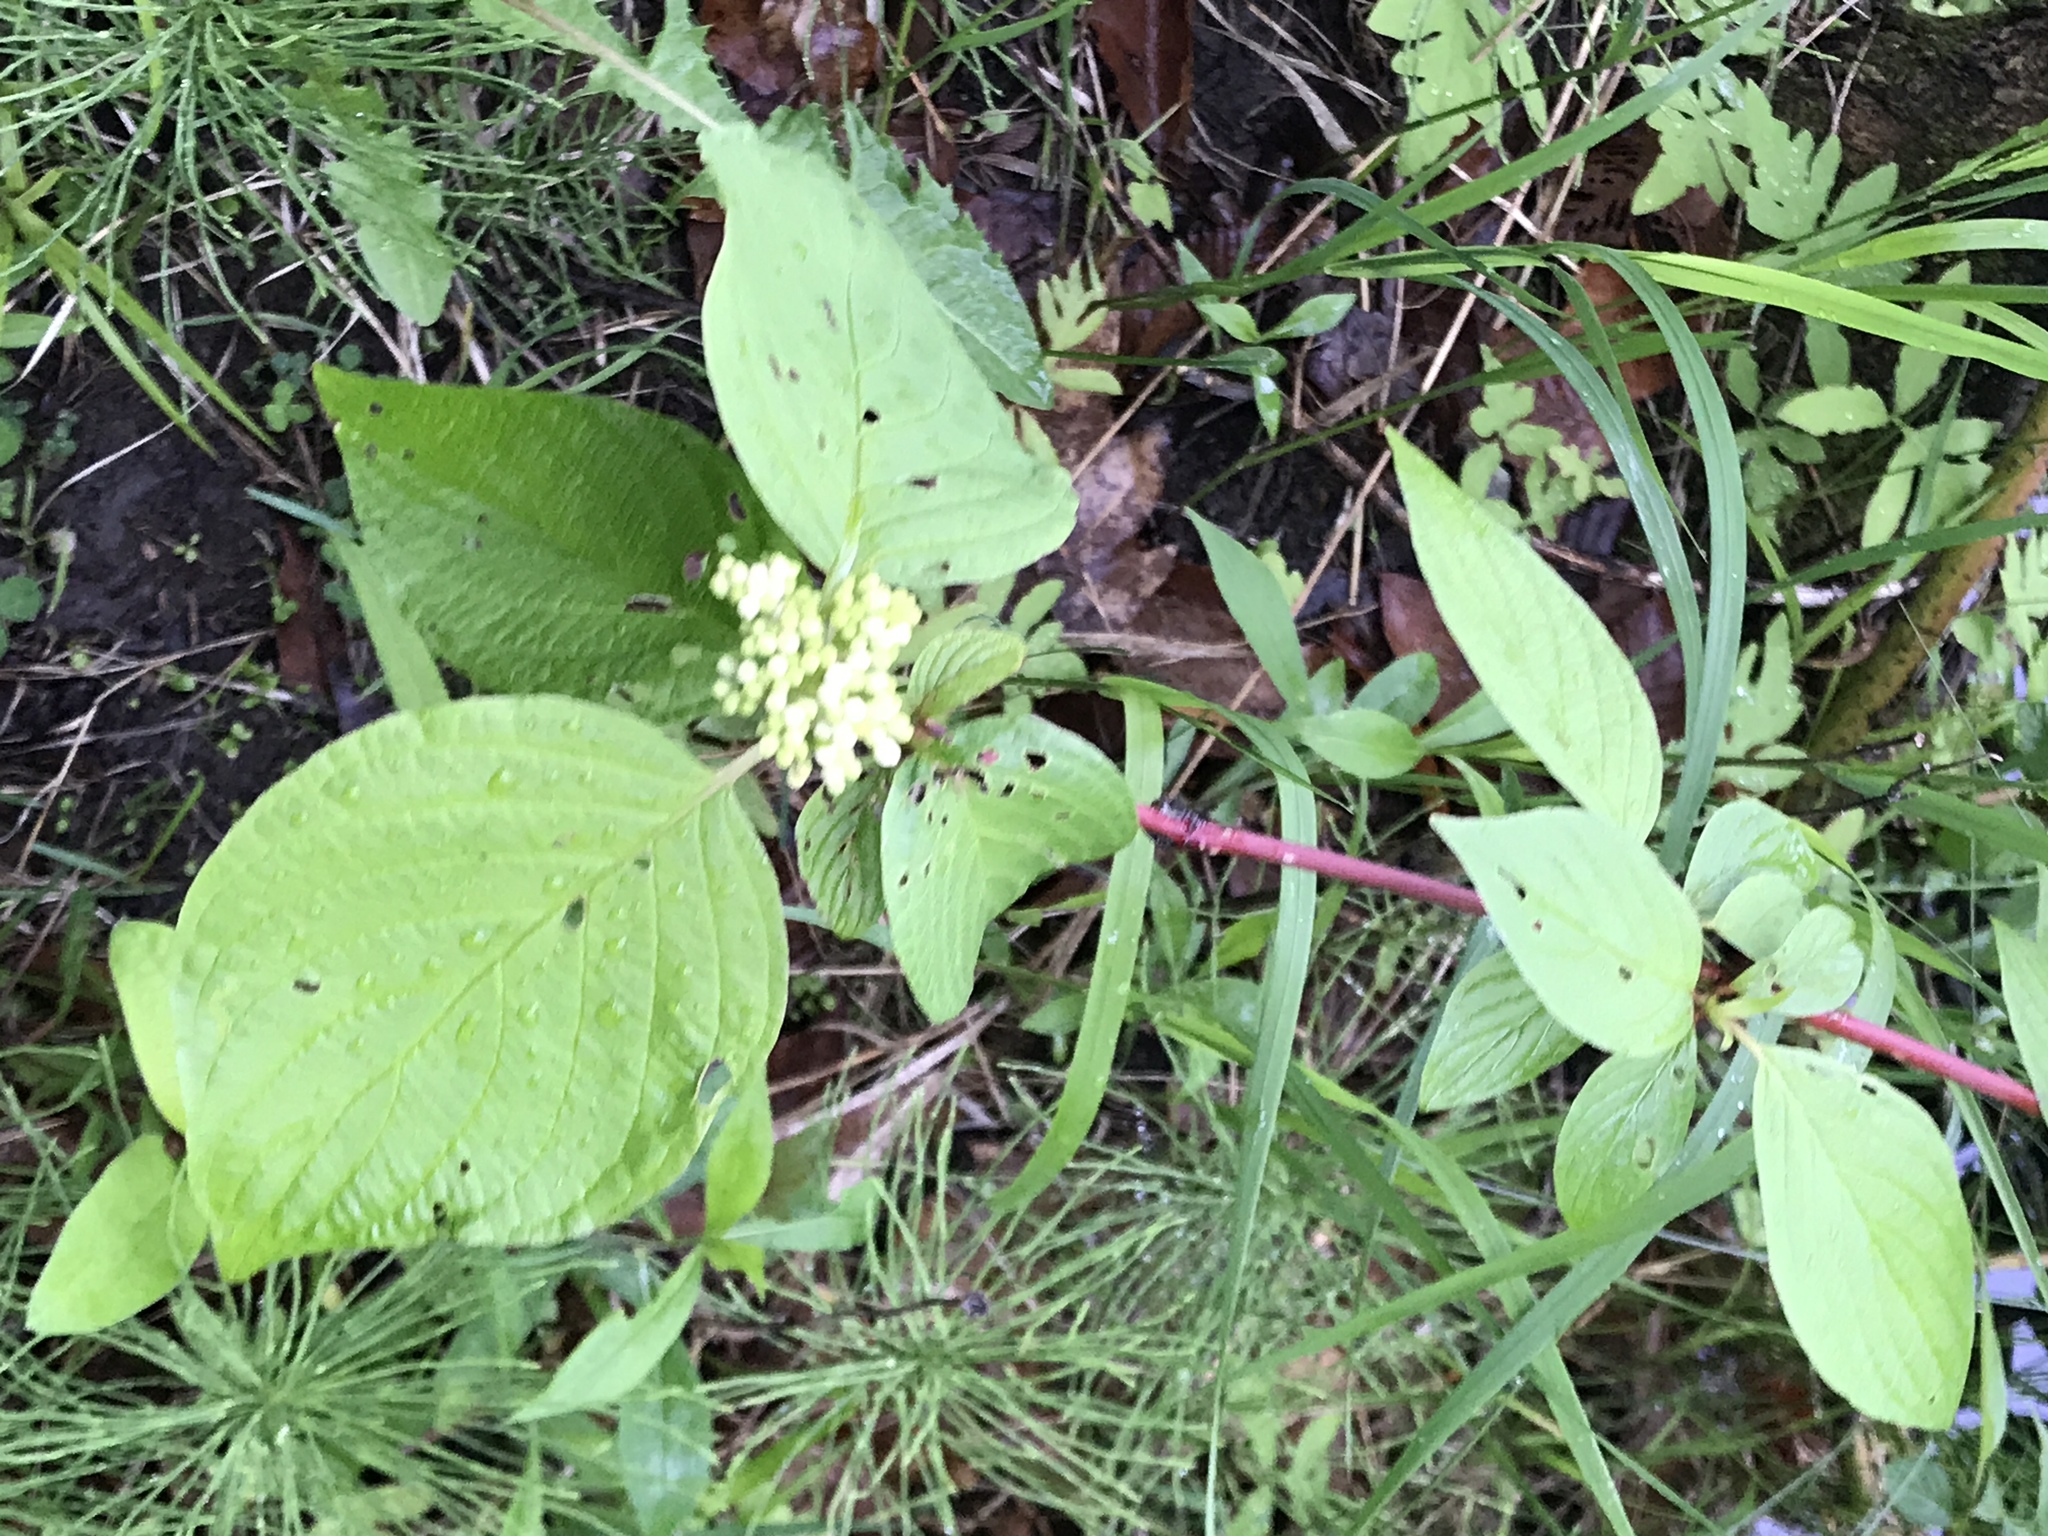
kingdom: Plantae
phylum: Tracheophyta
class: Magnoliopsida
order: Cornales
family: Cornaceae
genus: Cornus
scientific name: Cornus sericea
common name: Red-osier dogwood
